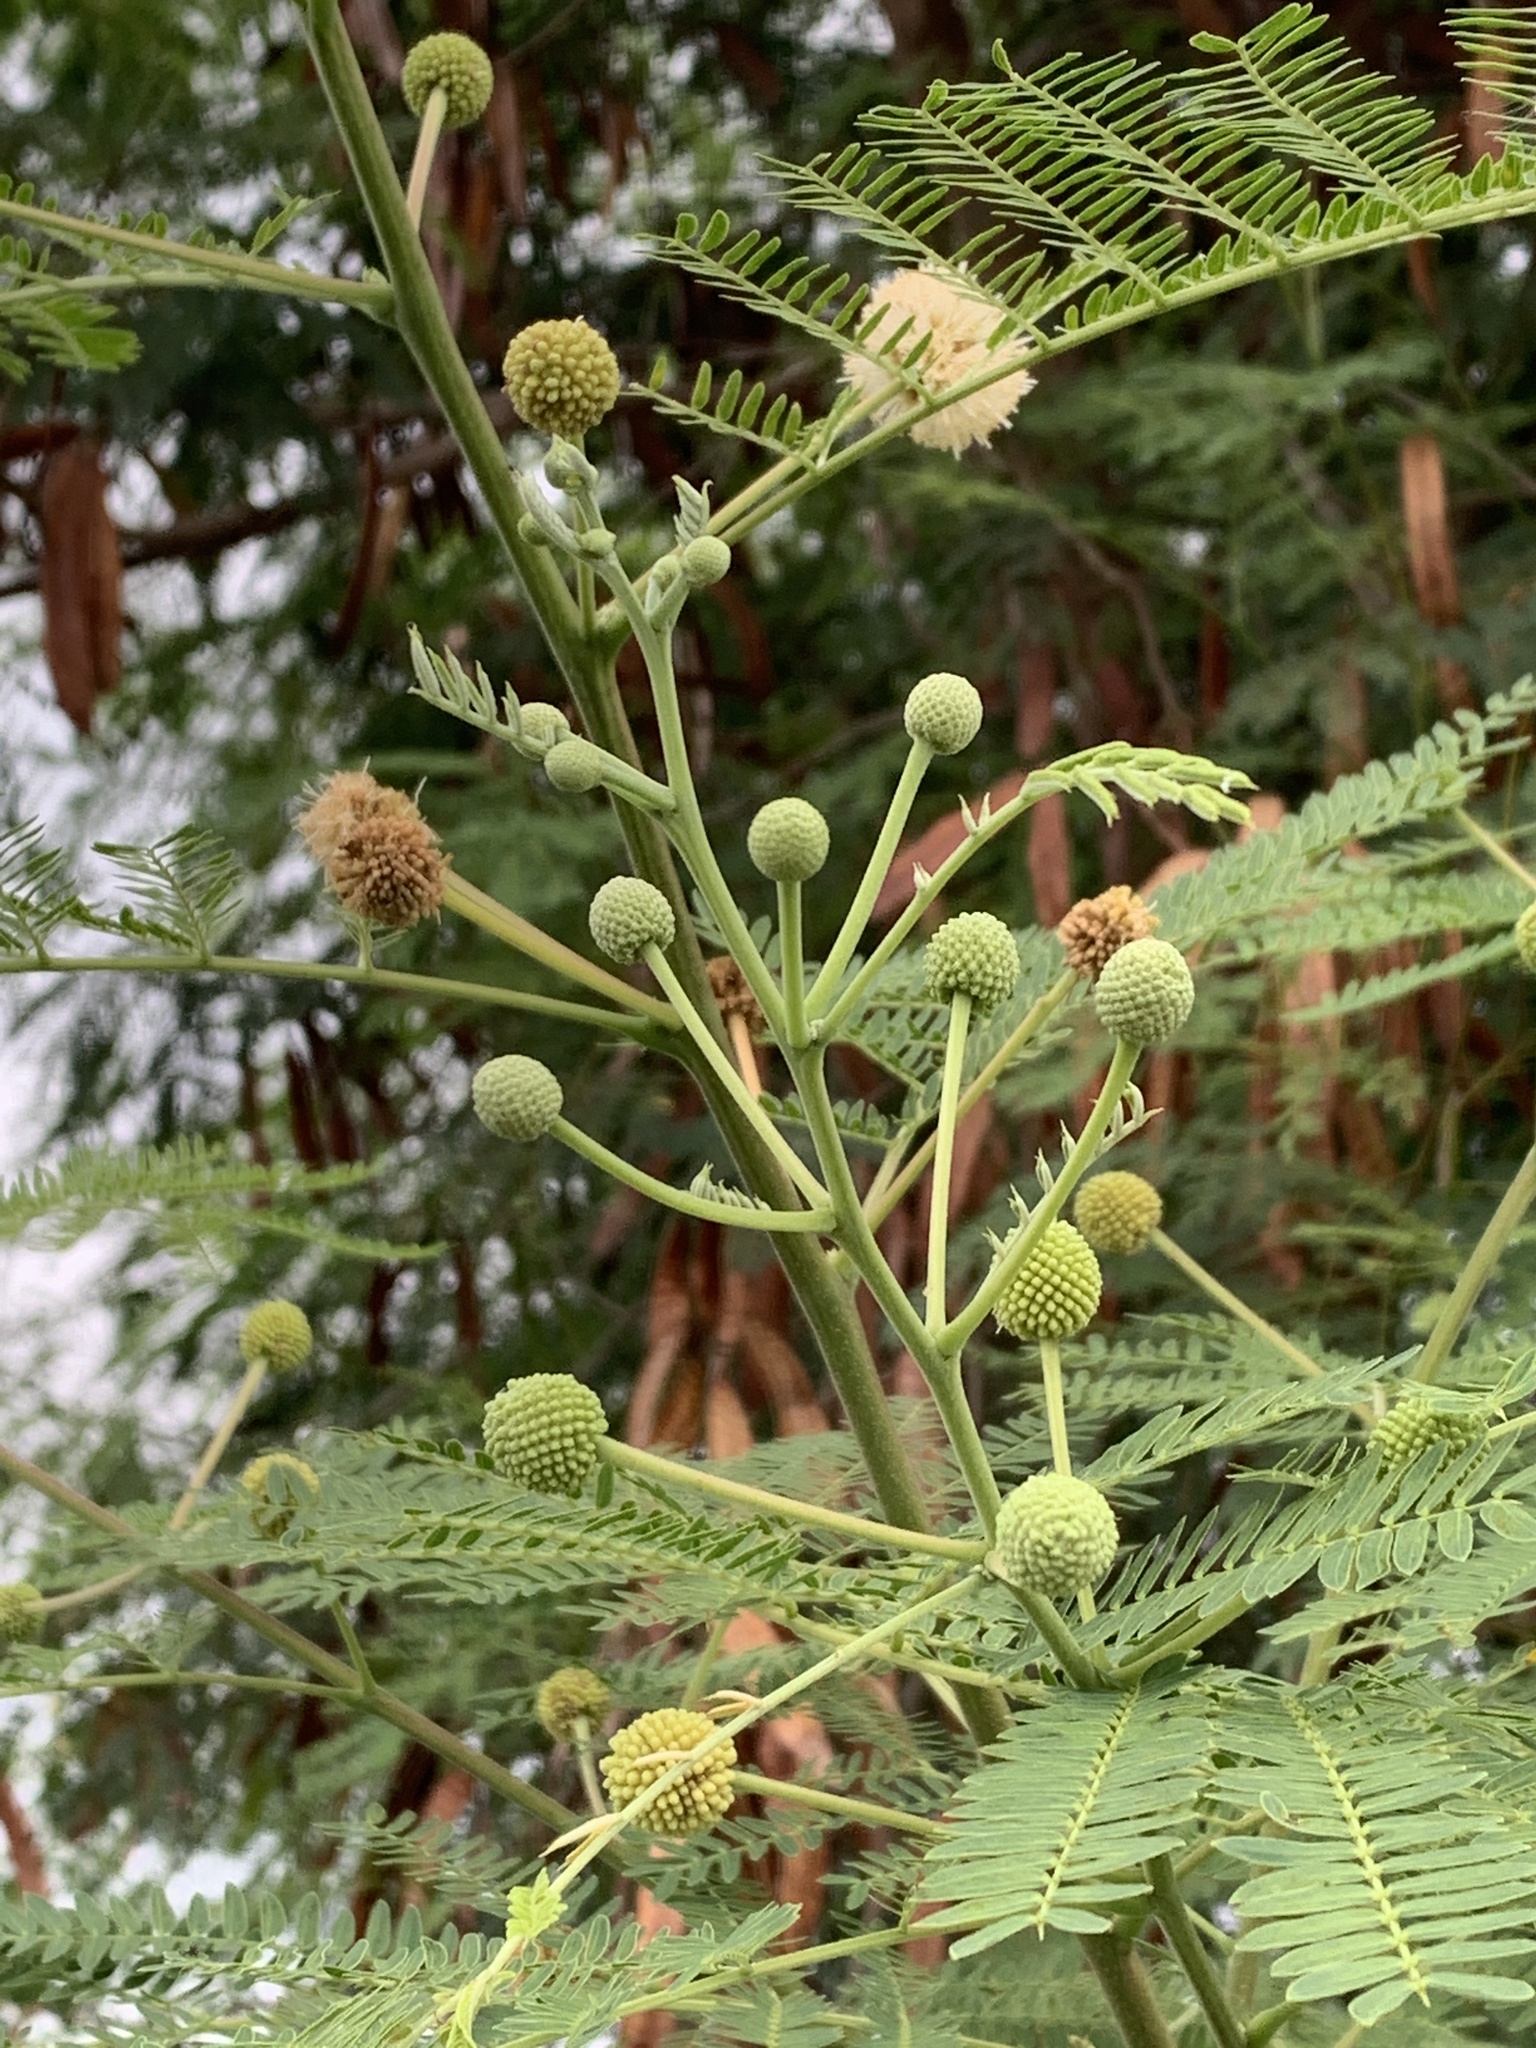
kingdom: Plantae
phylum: Tracheophyta
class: Magnoliopsida
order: Fabales
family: Fabaceae
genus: Leucaena
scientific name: Leucaena leucocephala
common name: White leadtree
